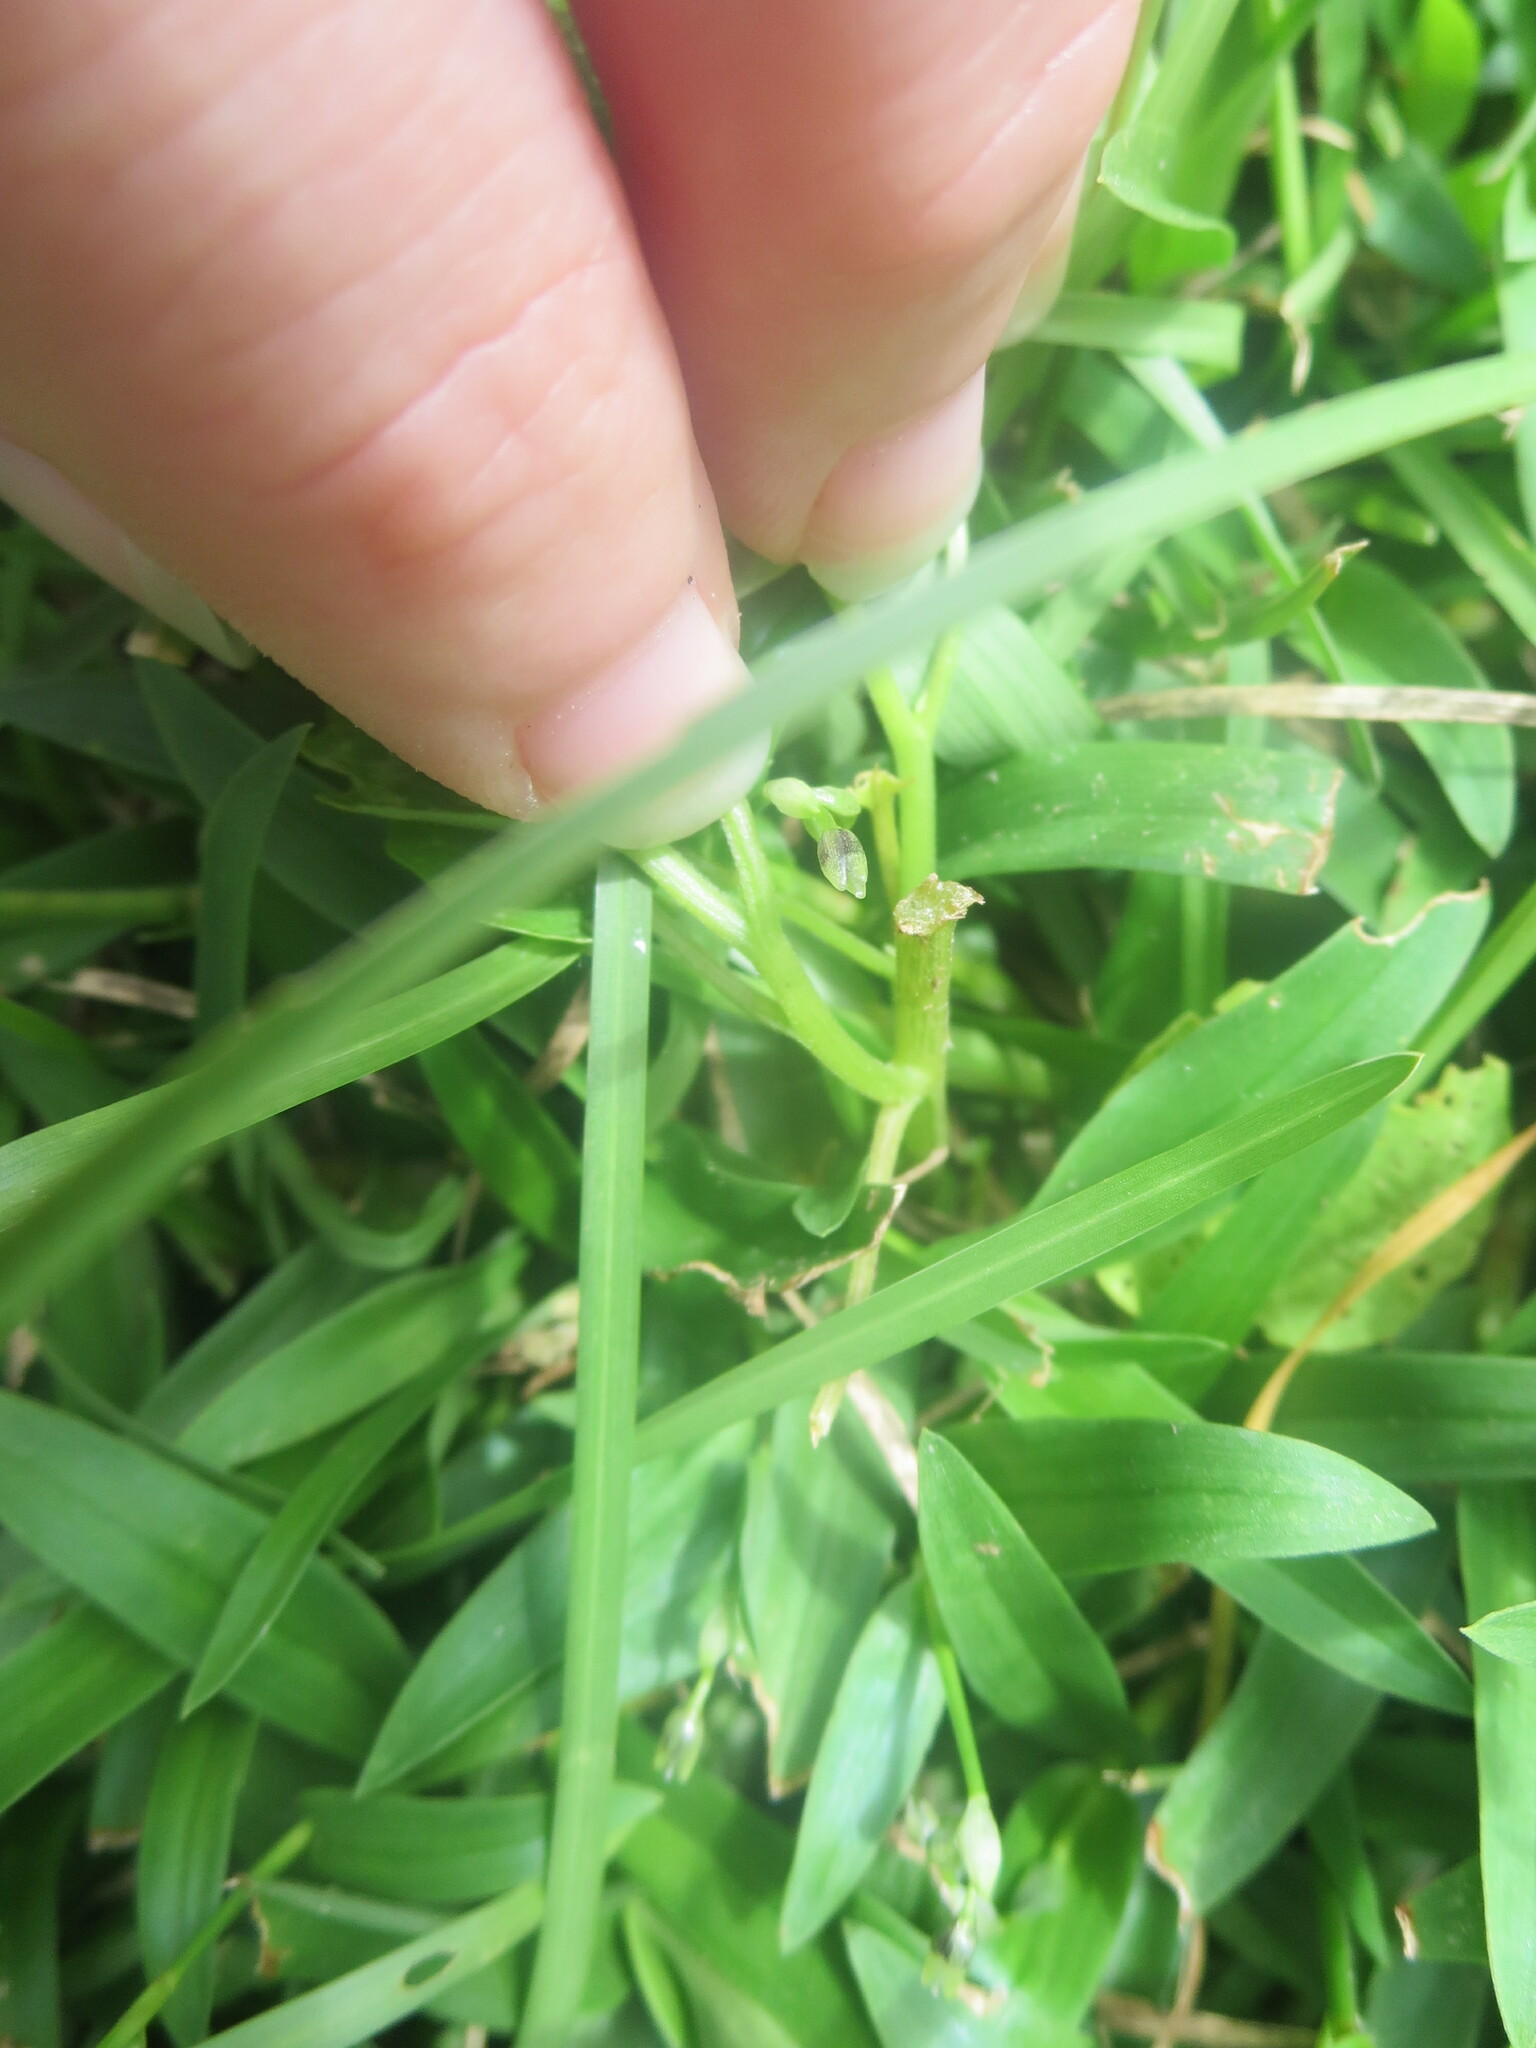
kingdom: Plantae
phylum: Tracheophyta
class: Magnoliopsida
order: Solanales
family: Solanaceae
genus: Physalis
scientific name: Physalis cordata
